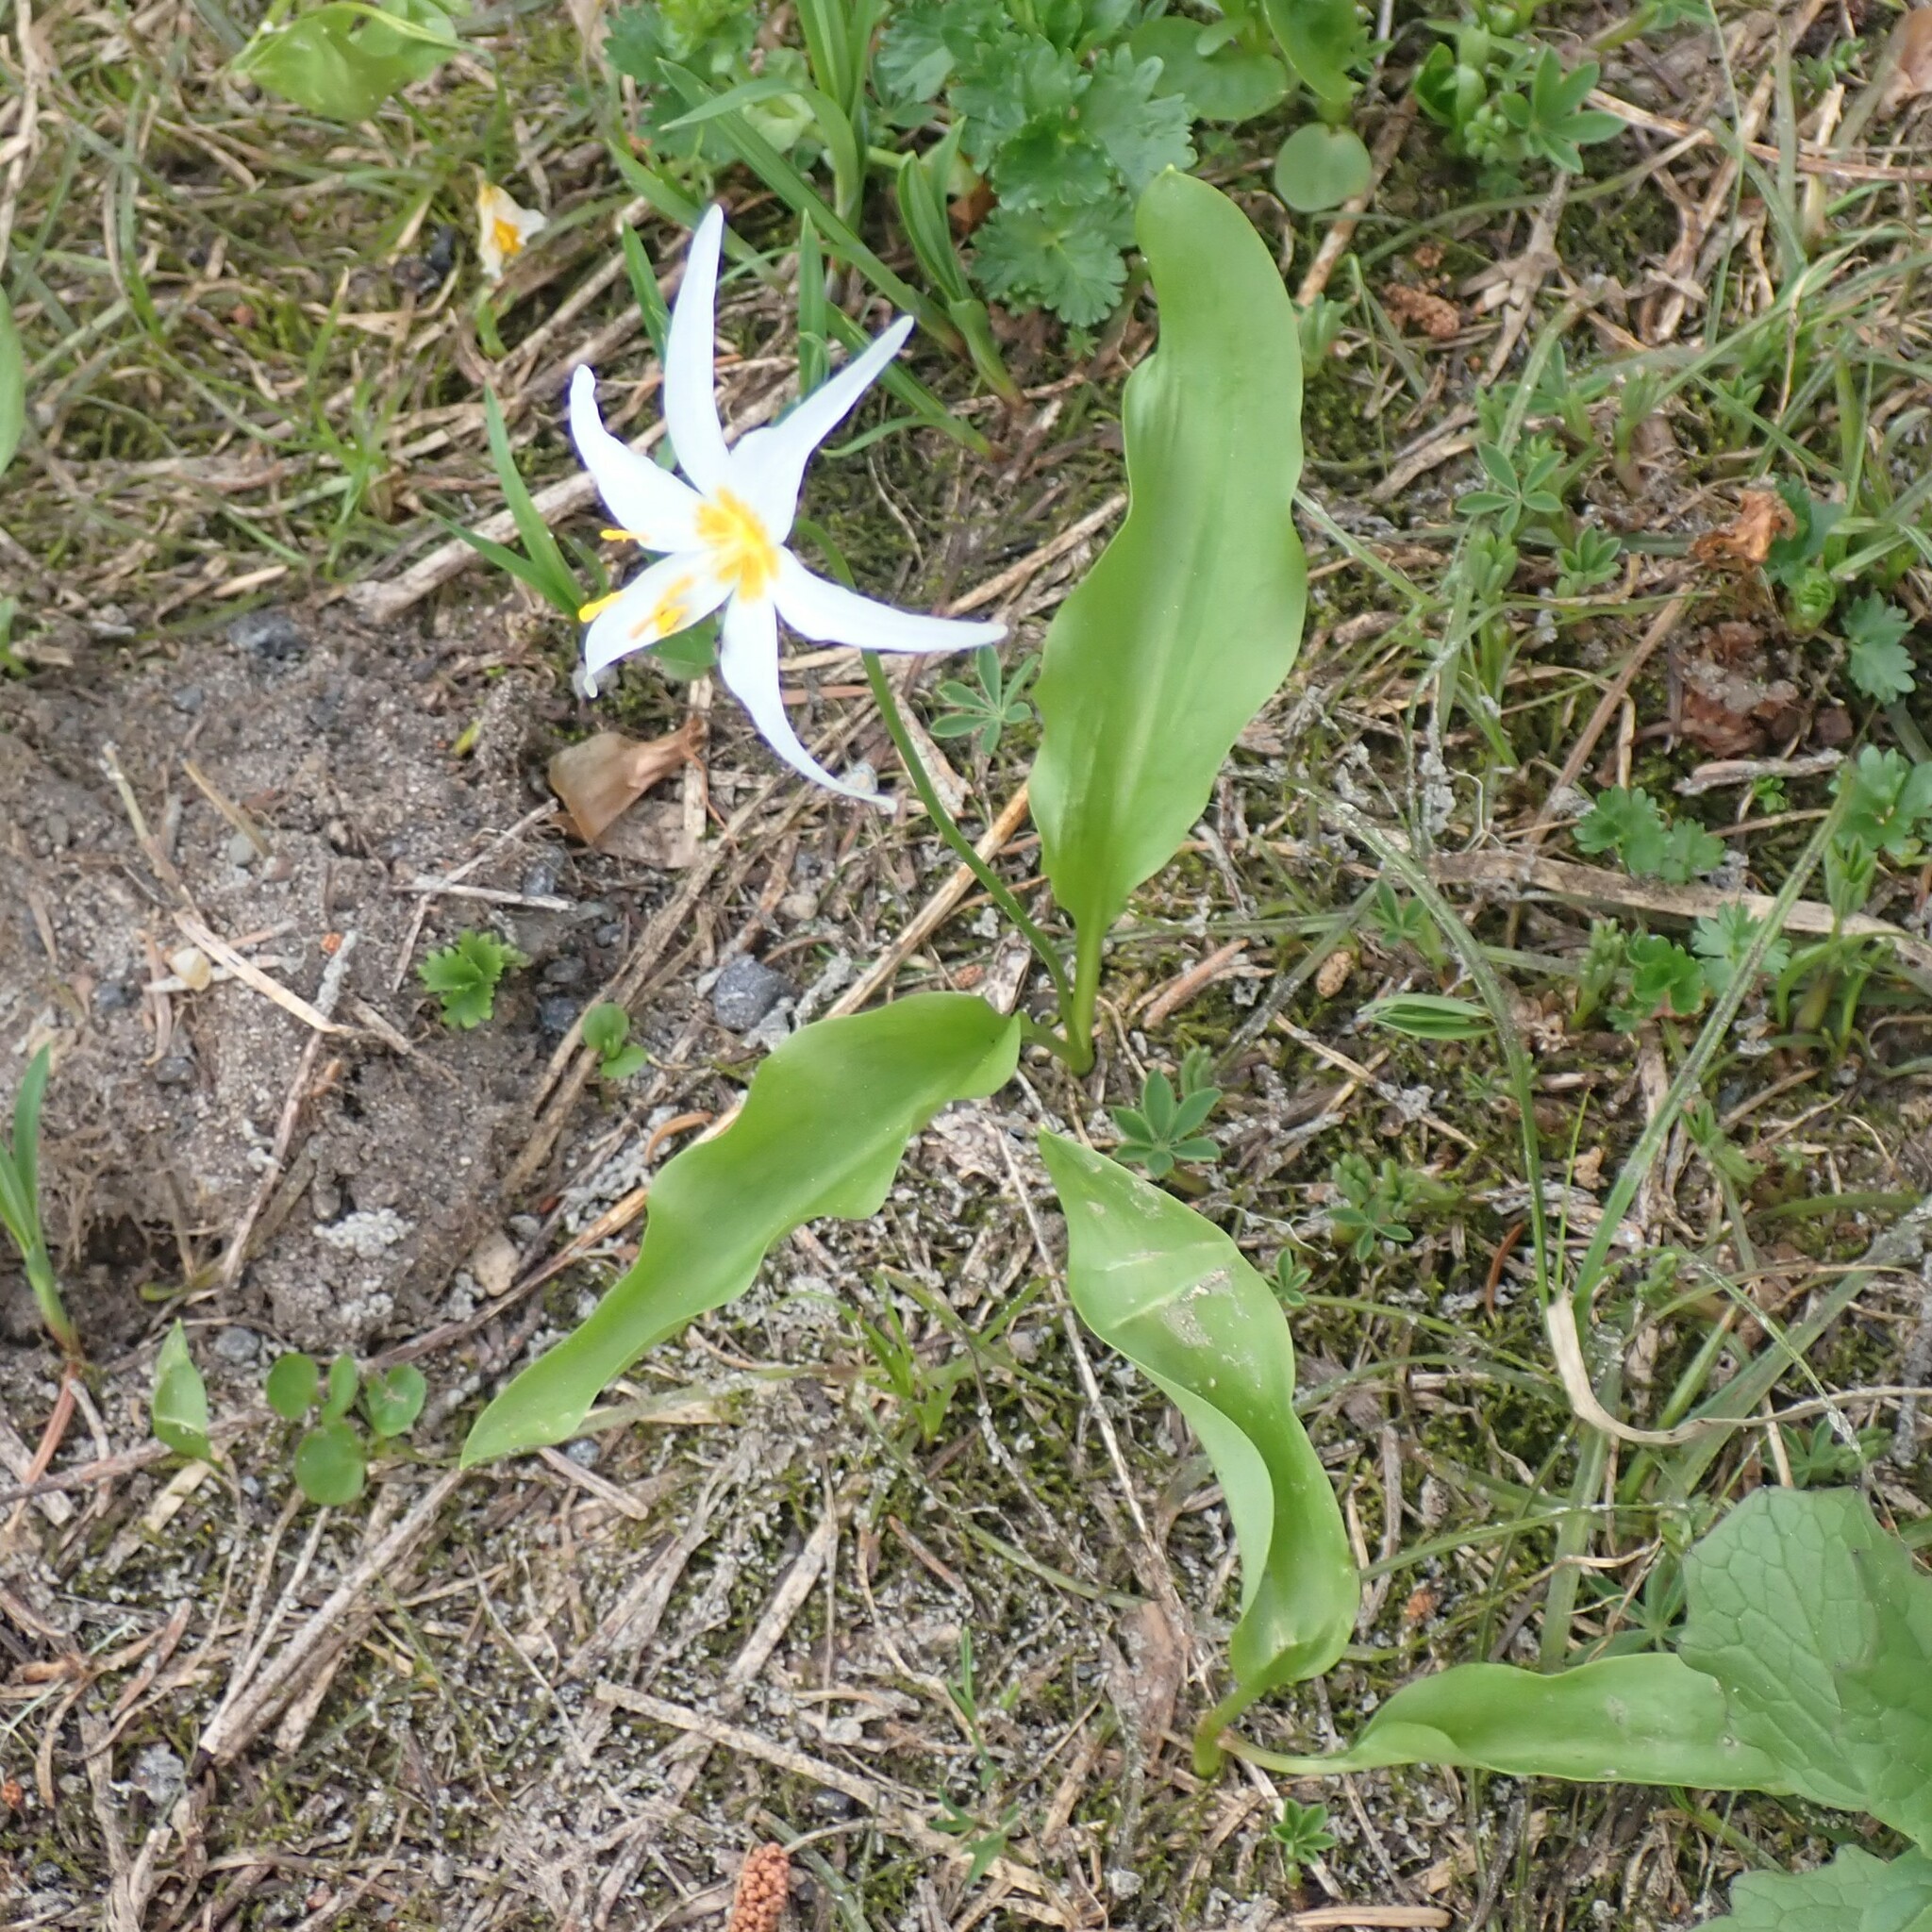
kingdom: Plantae
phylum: Tracheophyta
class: Liliopsida
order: Liliales
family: Liliaceae
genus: Erythronium
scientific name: Erythronium montanum
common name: Avalanche lily
